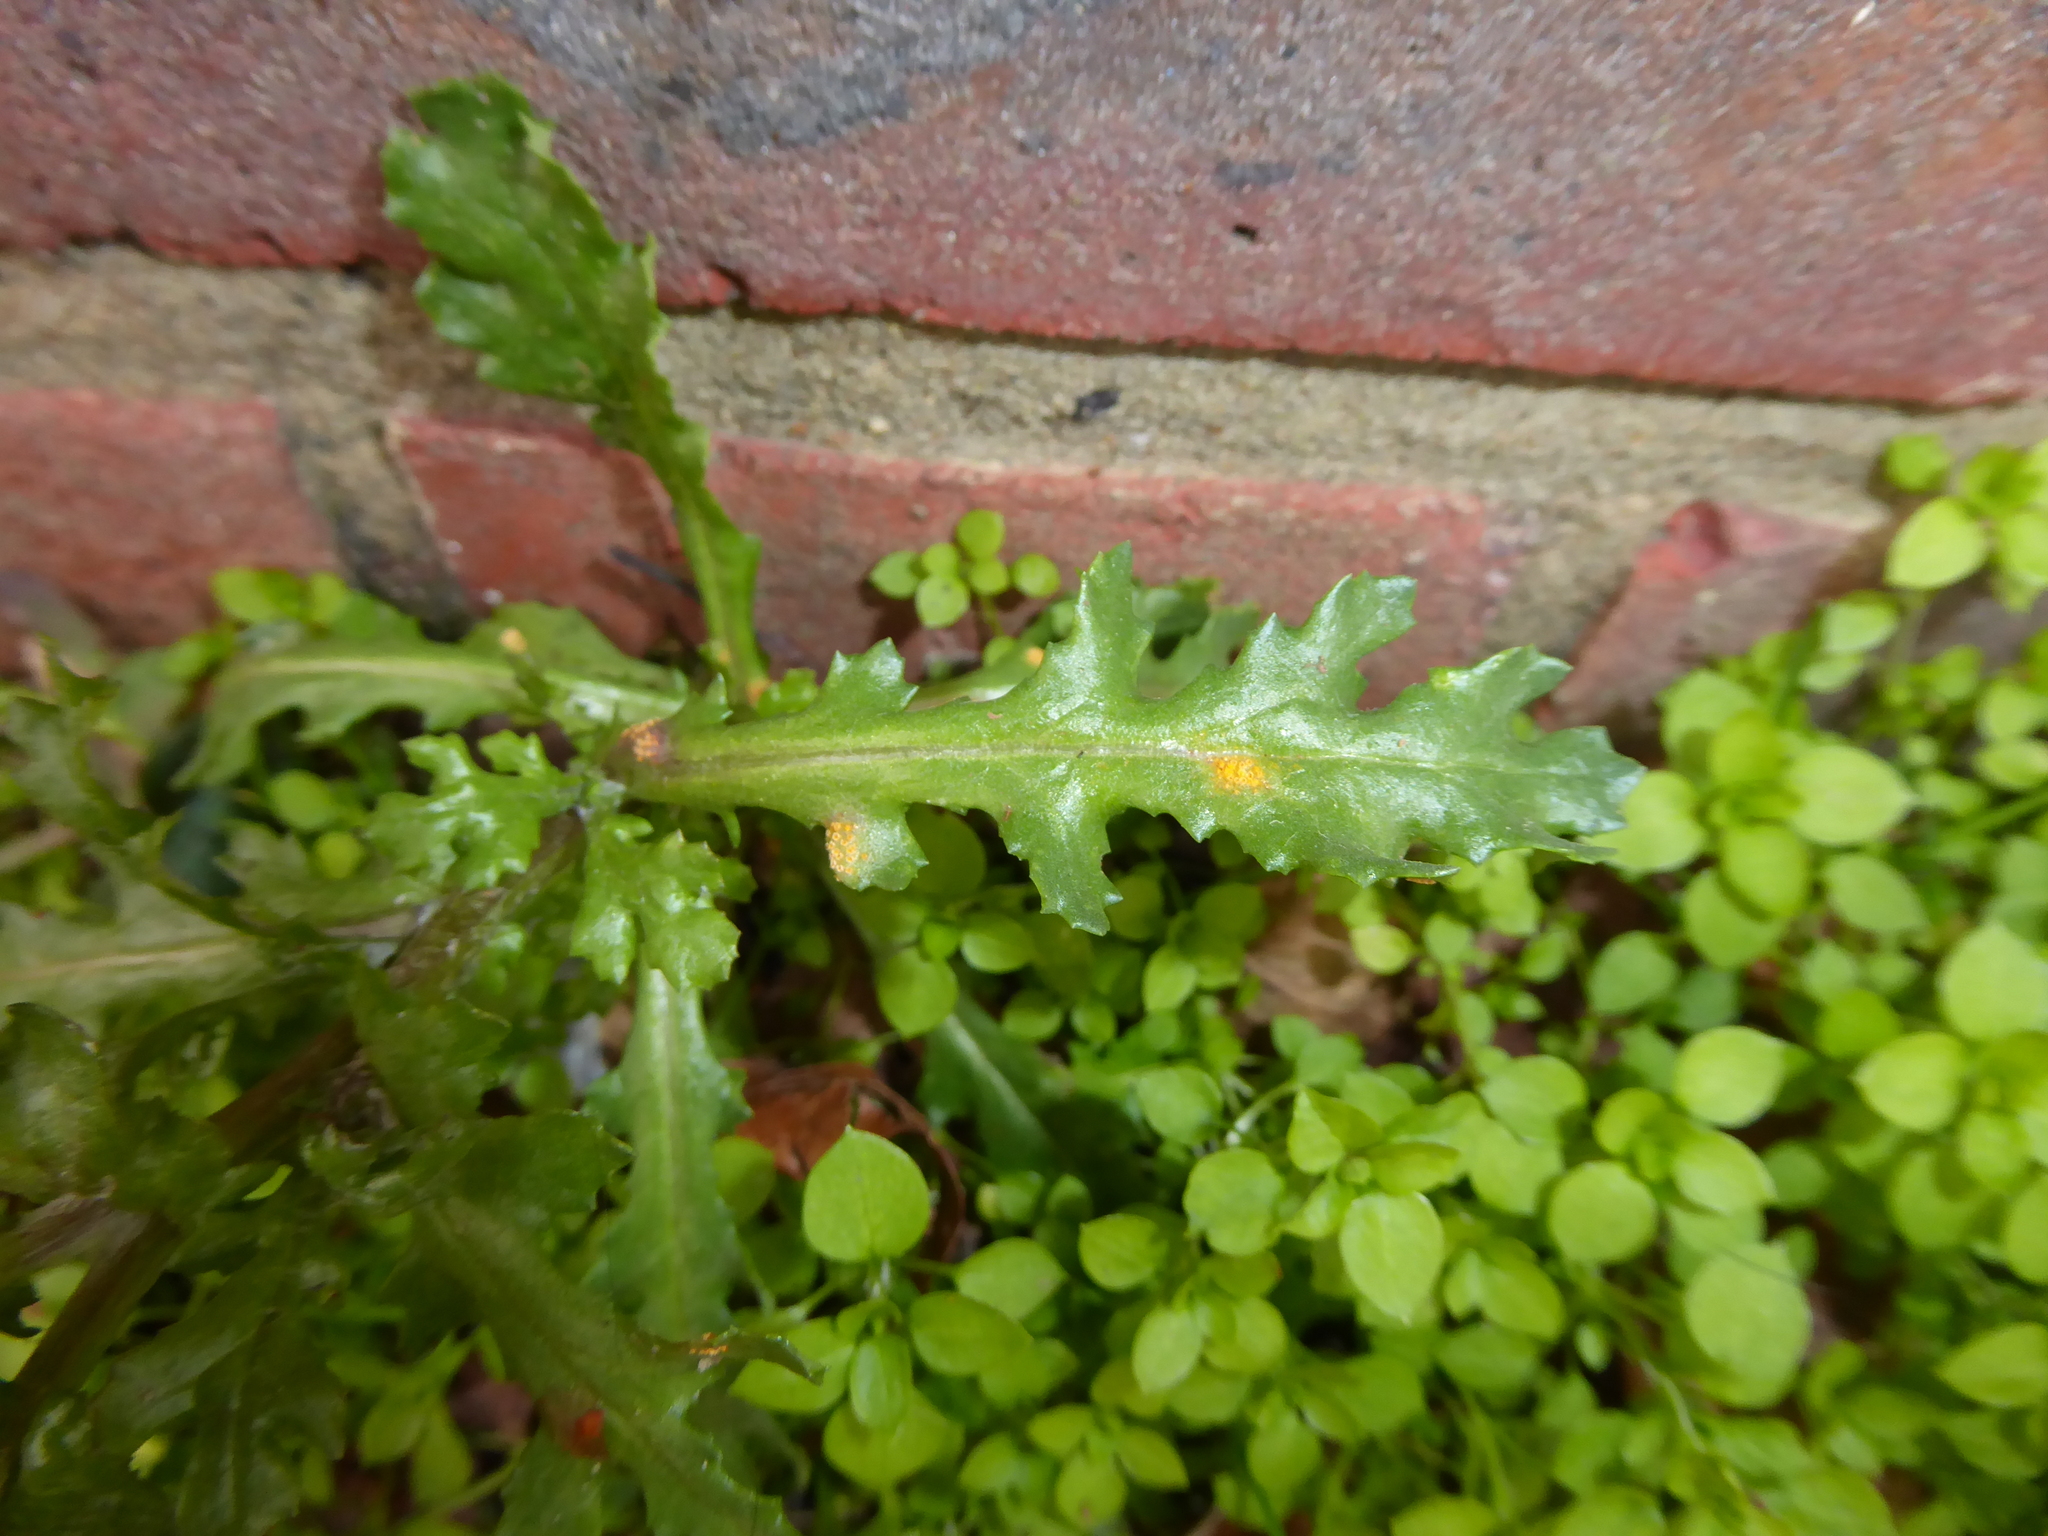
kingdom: Fungi
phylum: Basidiomycota
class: Pucciniomycetes
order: Pucciniales
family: Pucciniaceae
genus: Puccinia
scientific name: Puccinia lagenophorae
